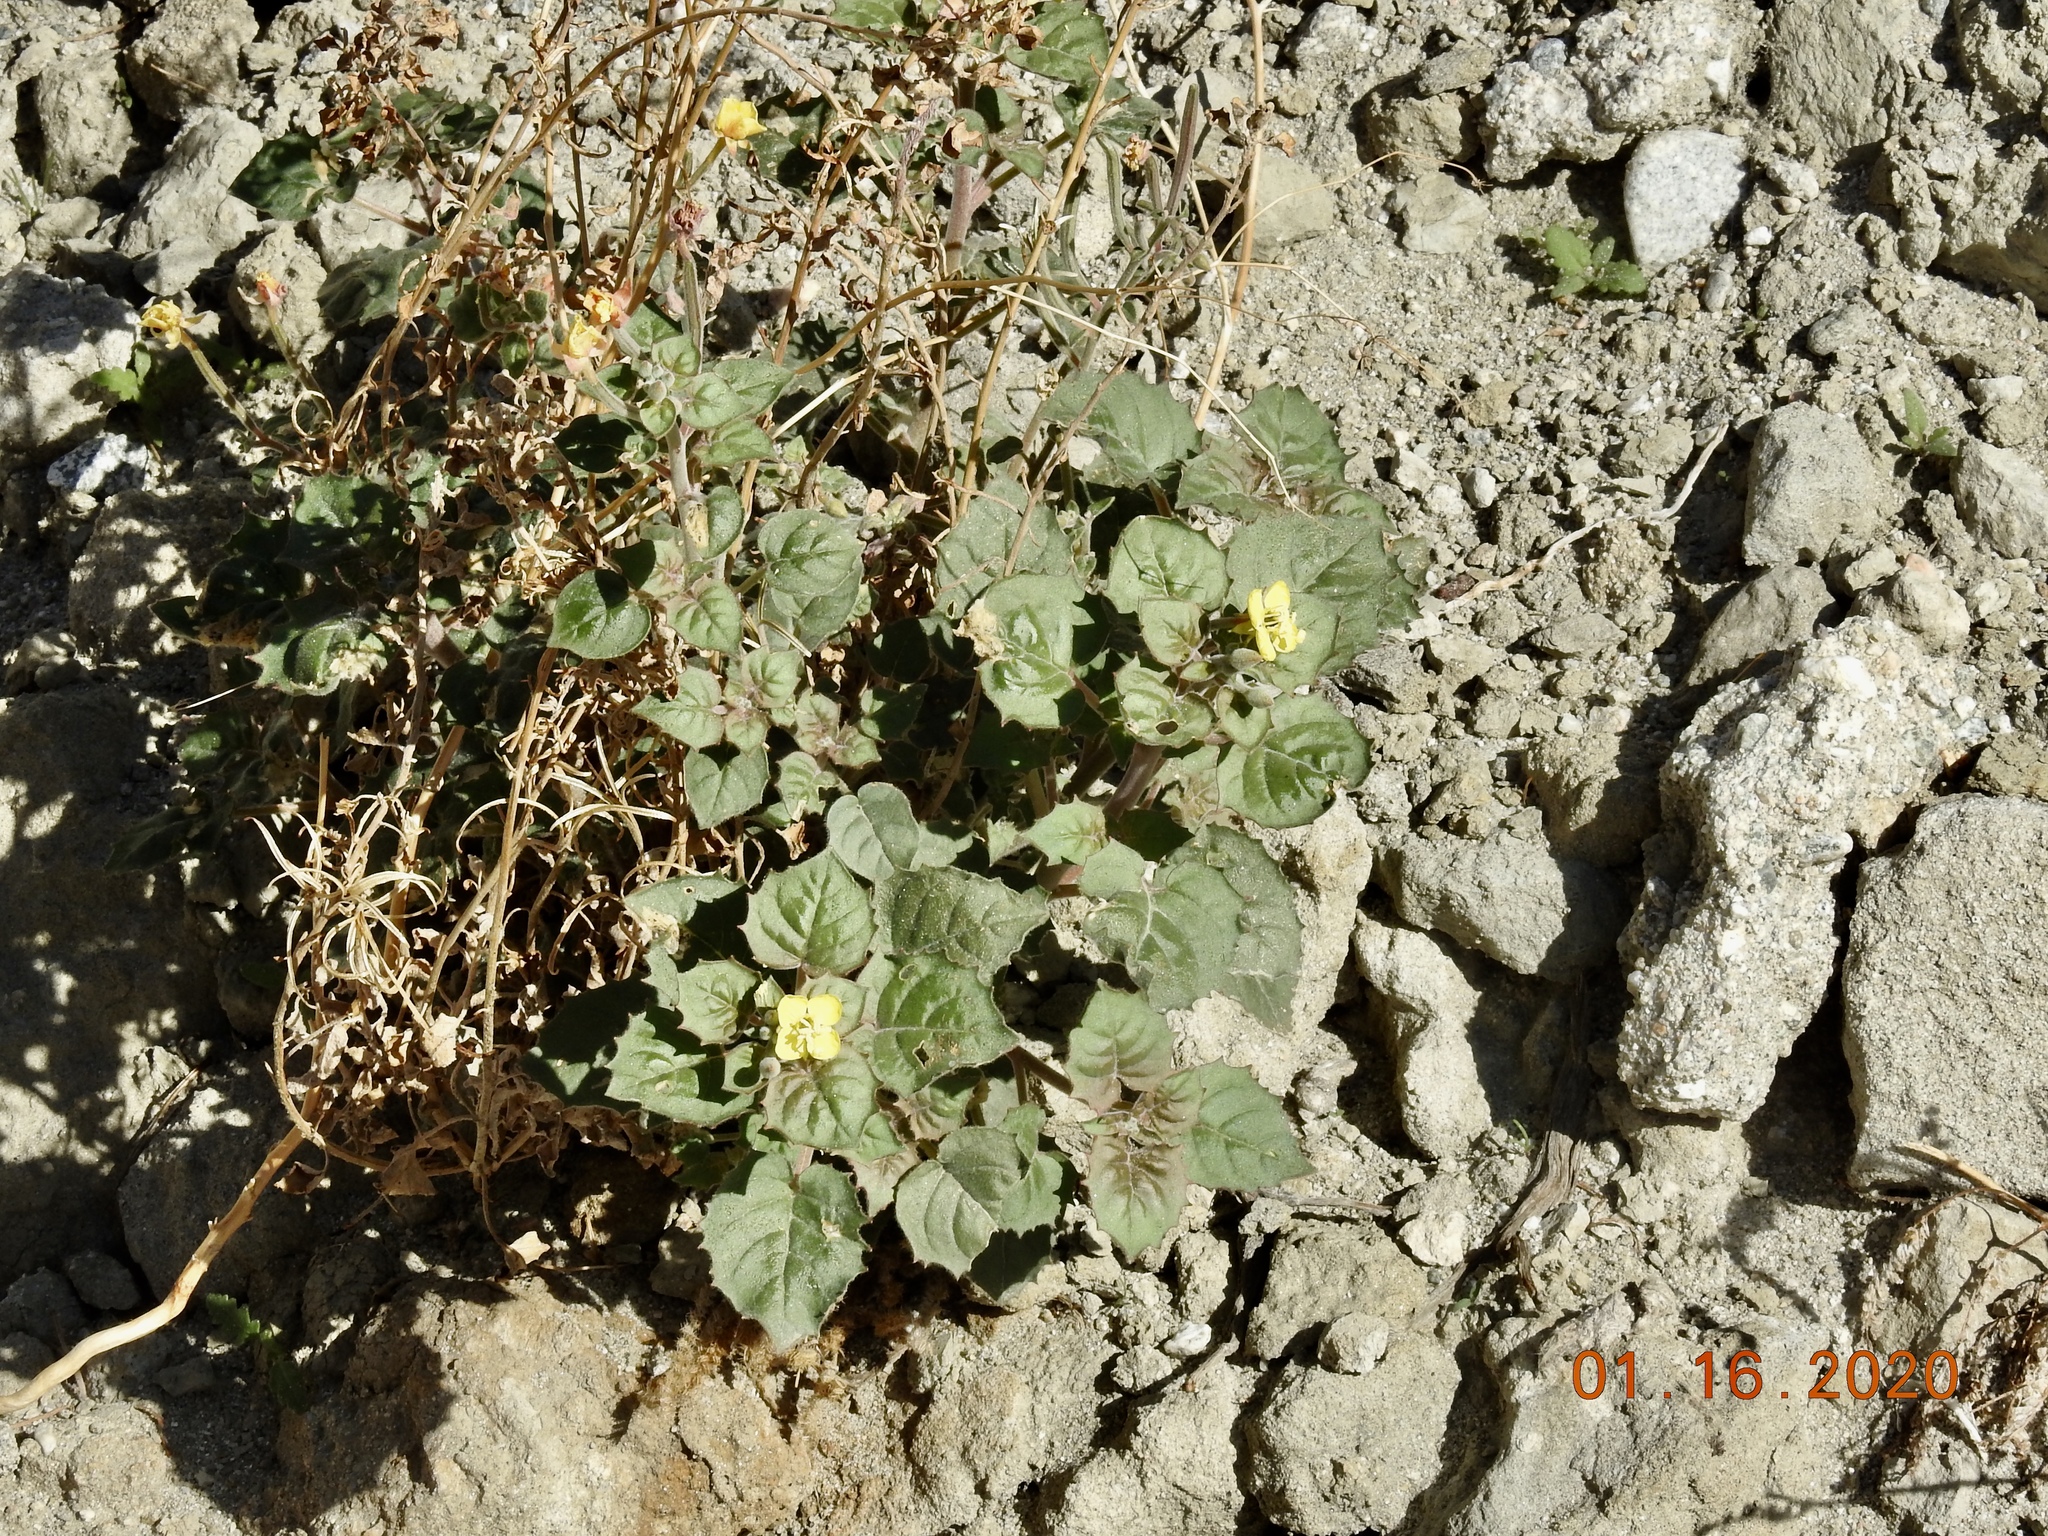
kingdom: Plantae
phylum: Tracheophyta
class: Magnoliopsida
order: Myrtales
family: Onagraceae
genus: Chylismia
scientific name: Chylismia cardiophylla
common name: Heartleaf suncup
